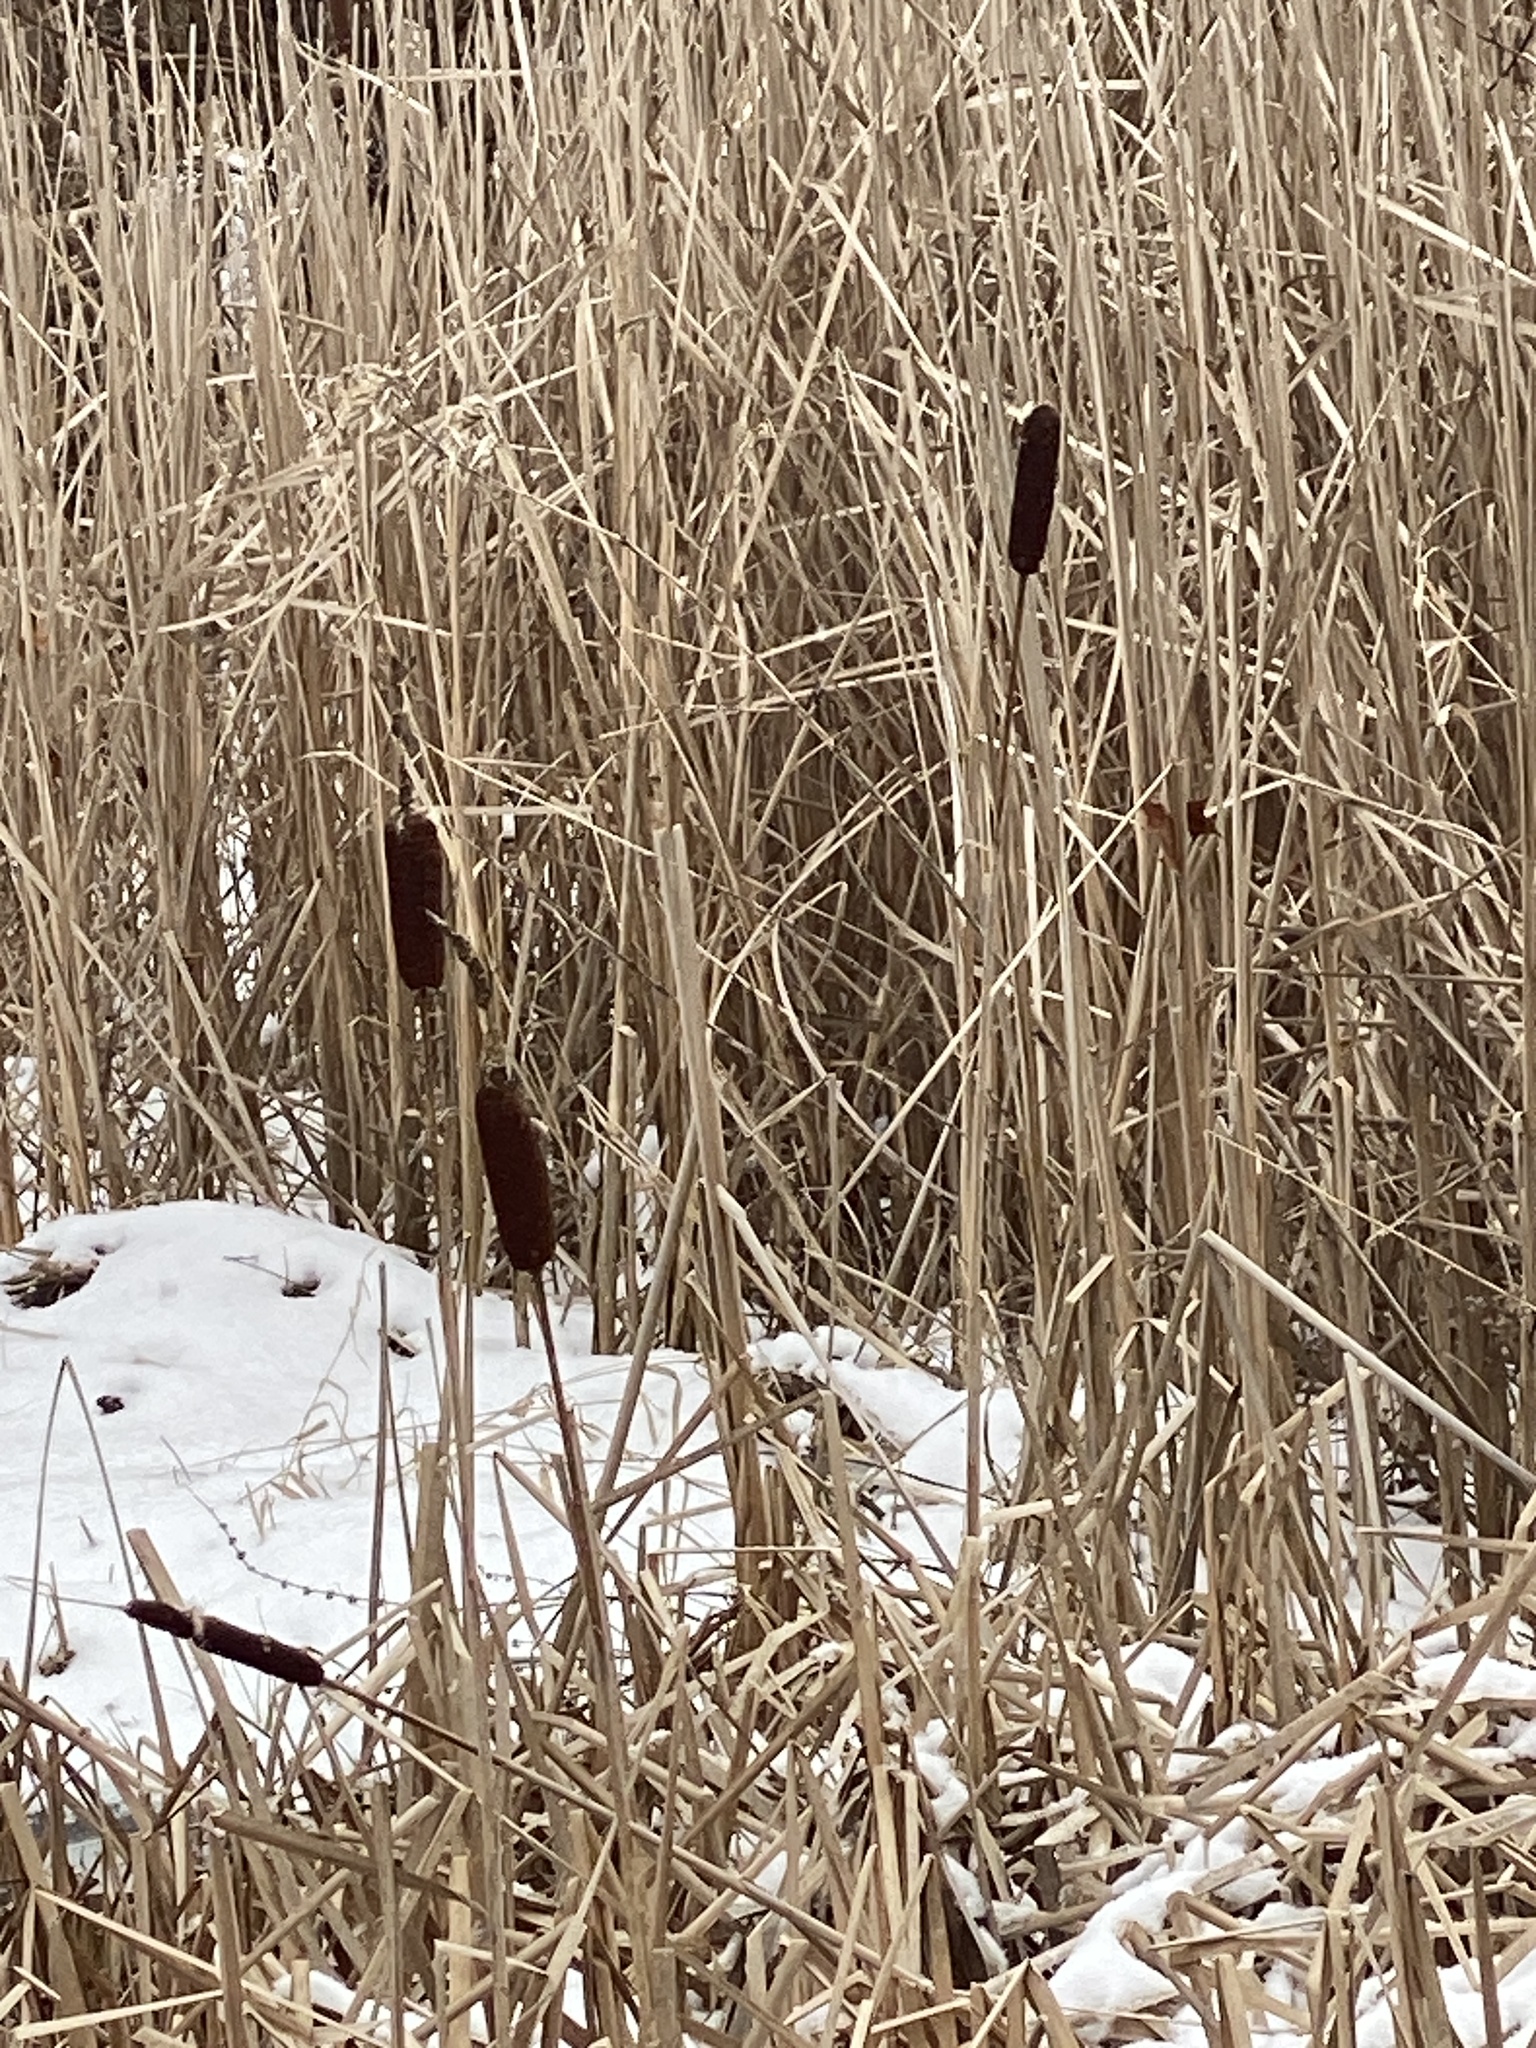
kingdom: Plantae
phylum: Tracheophyta
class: Liliopsida
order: Poales
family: Typhaceae
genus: Typha
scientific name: Typha latifolia
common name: Broadleaf cattail
